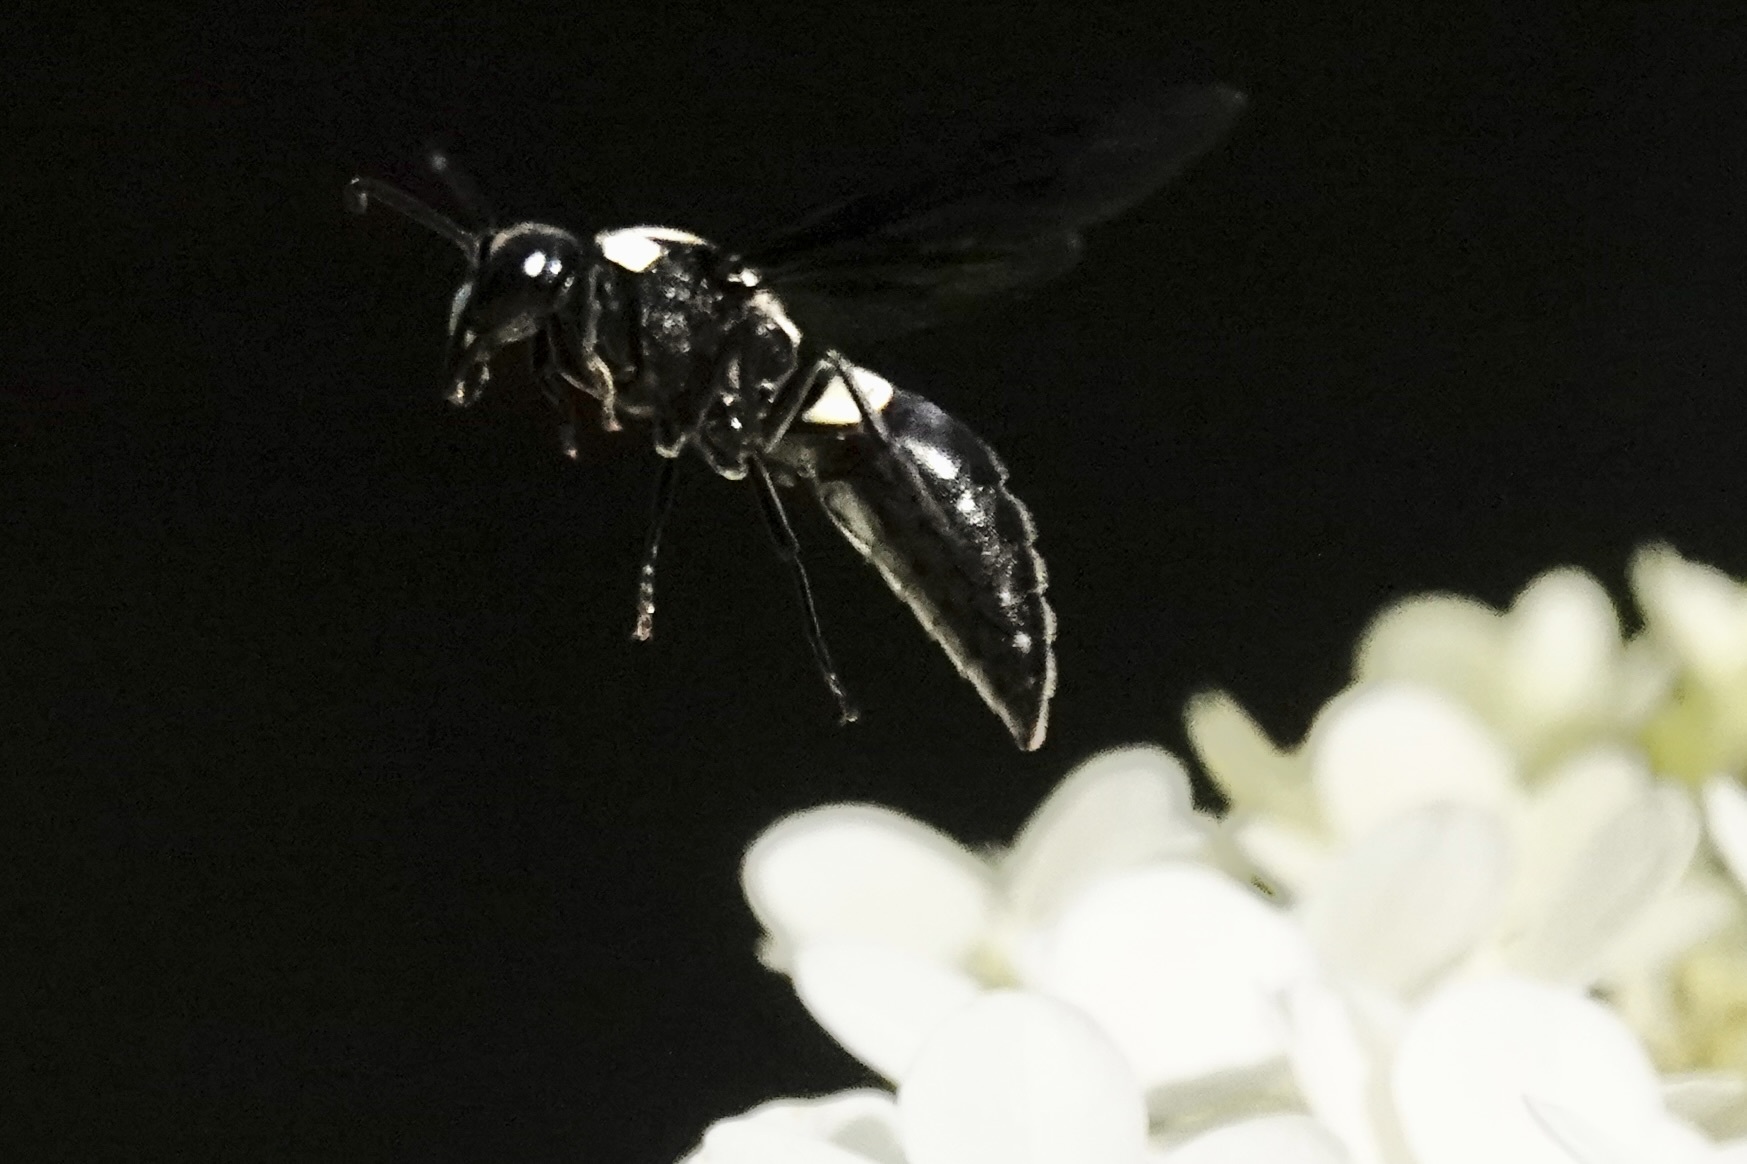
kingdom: Animalia
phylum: Arthropoda
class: Insecta
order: Hymenoptera
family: Eumenidae
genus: Monobia
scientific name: Monobia quadridens
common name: Four-toothed mason wasp
